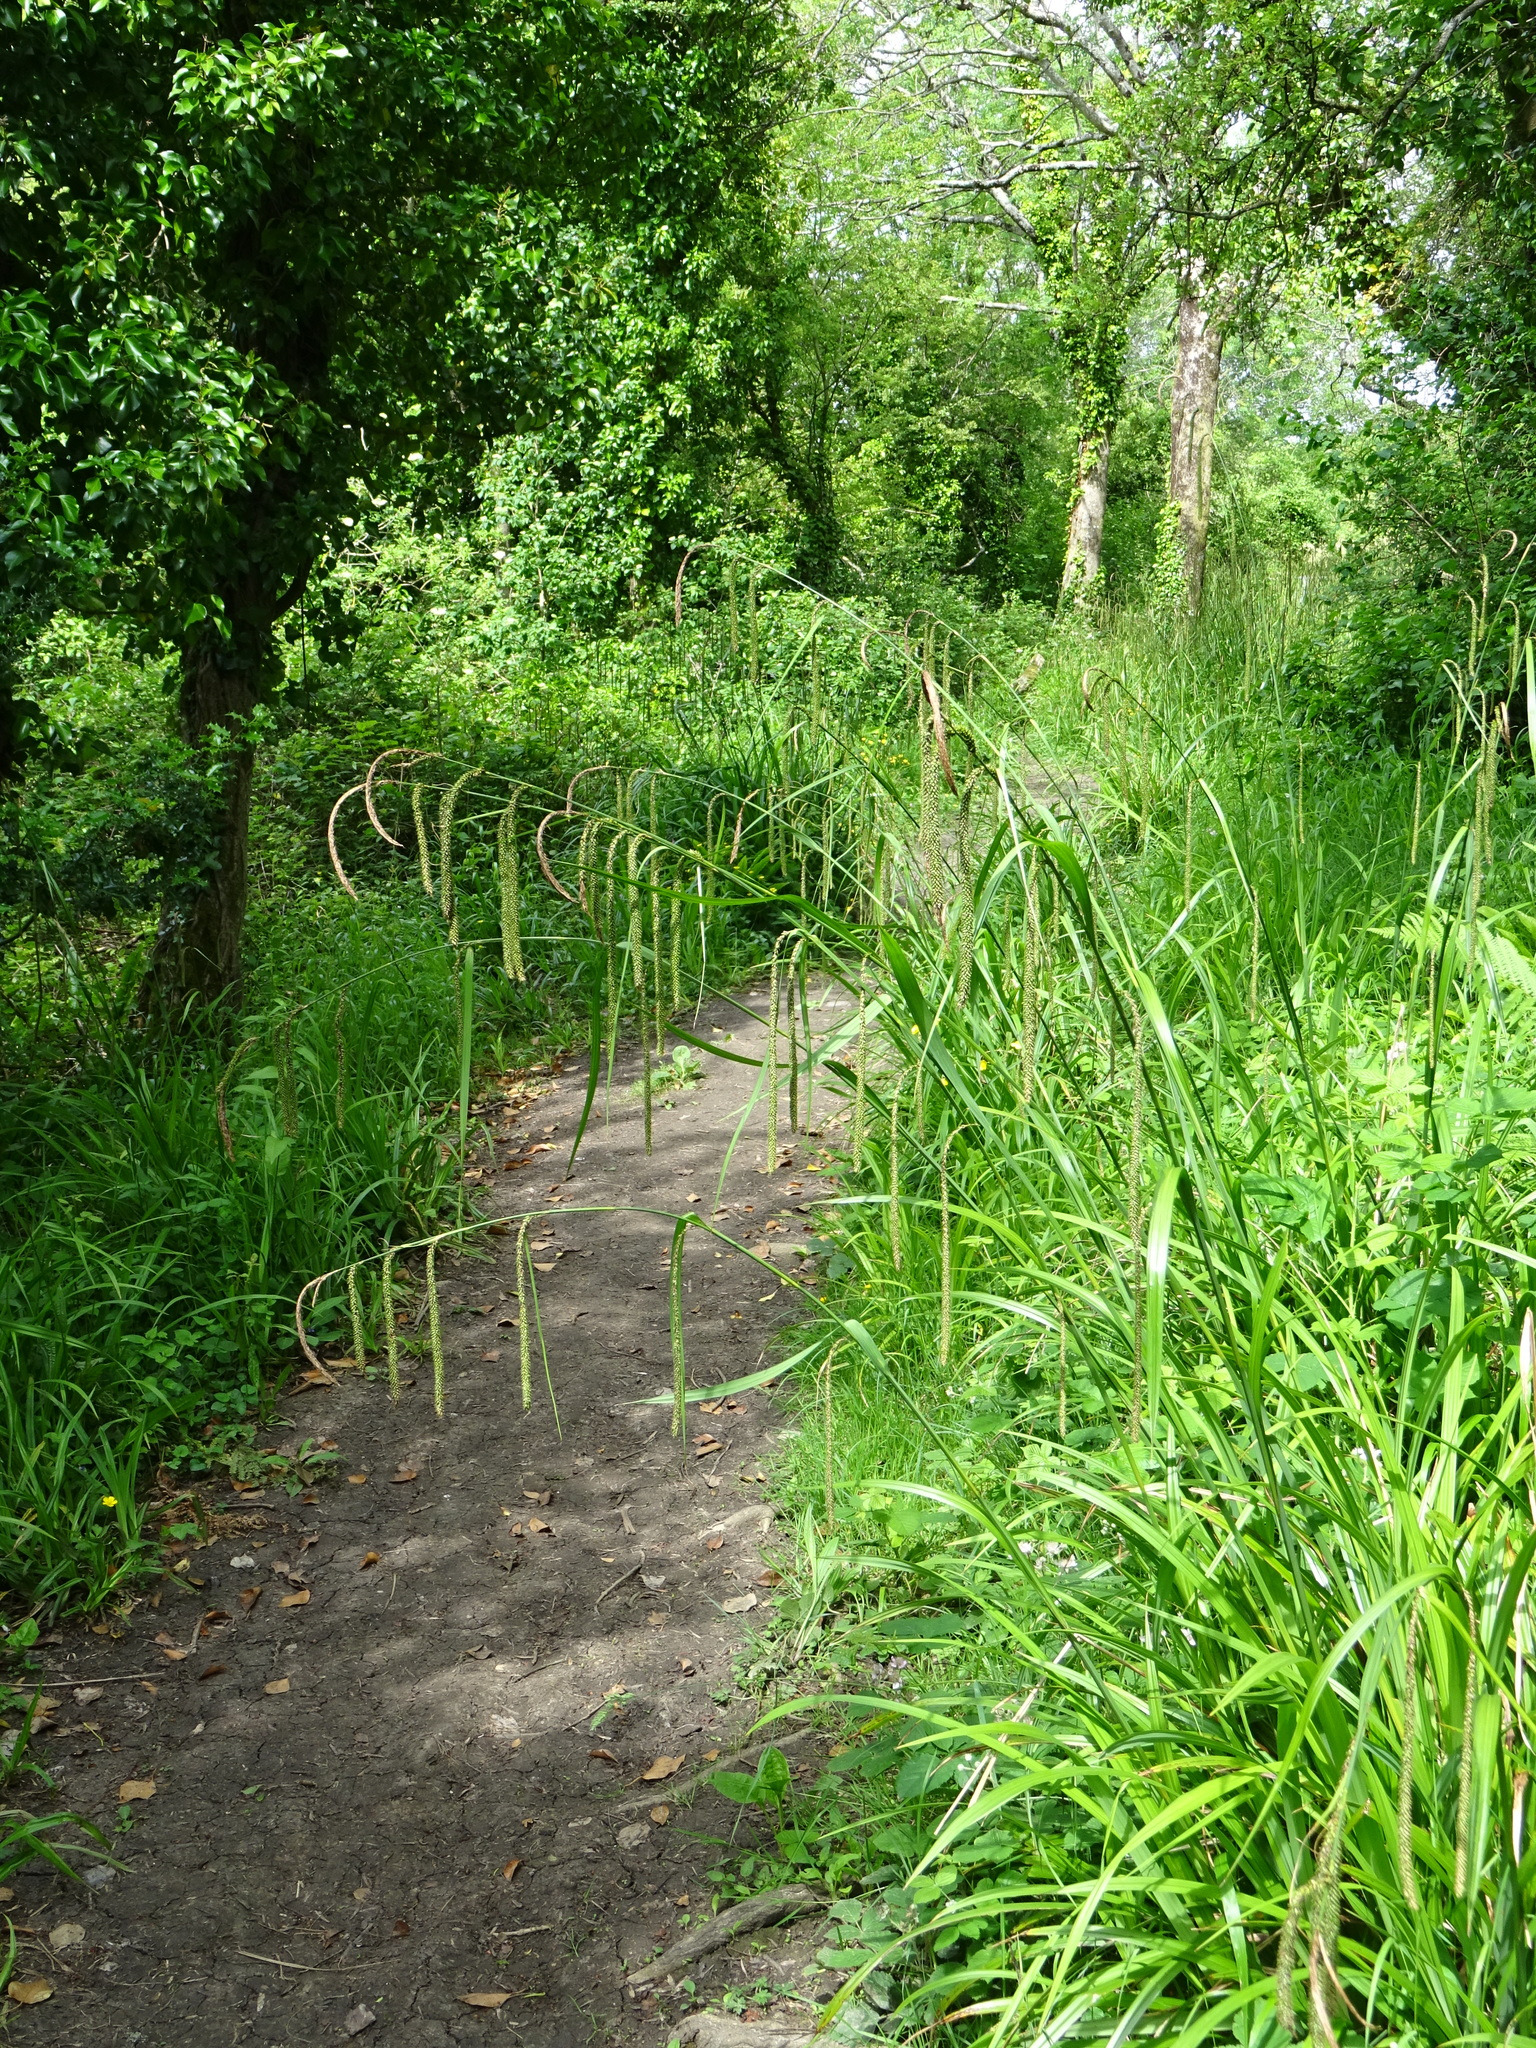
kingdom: Plantae
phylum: Tracheophyta
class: Liliopsida
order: Poales
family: Cyperaceae
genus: Carex
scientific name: Carex pendula
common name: Pendulous sedge
